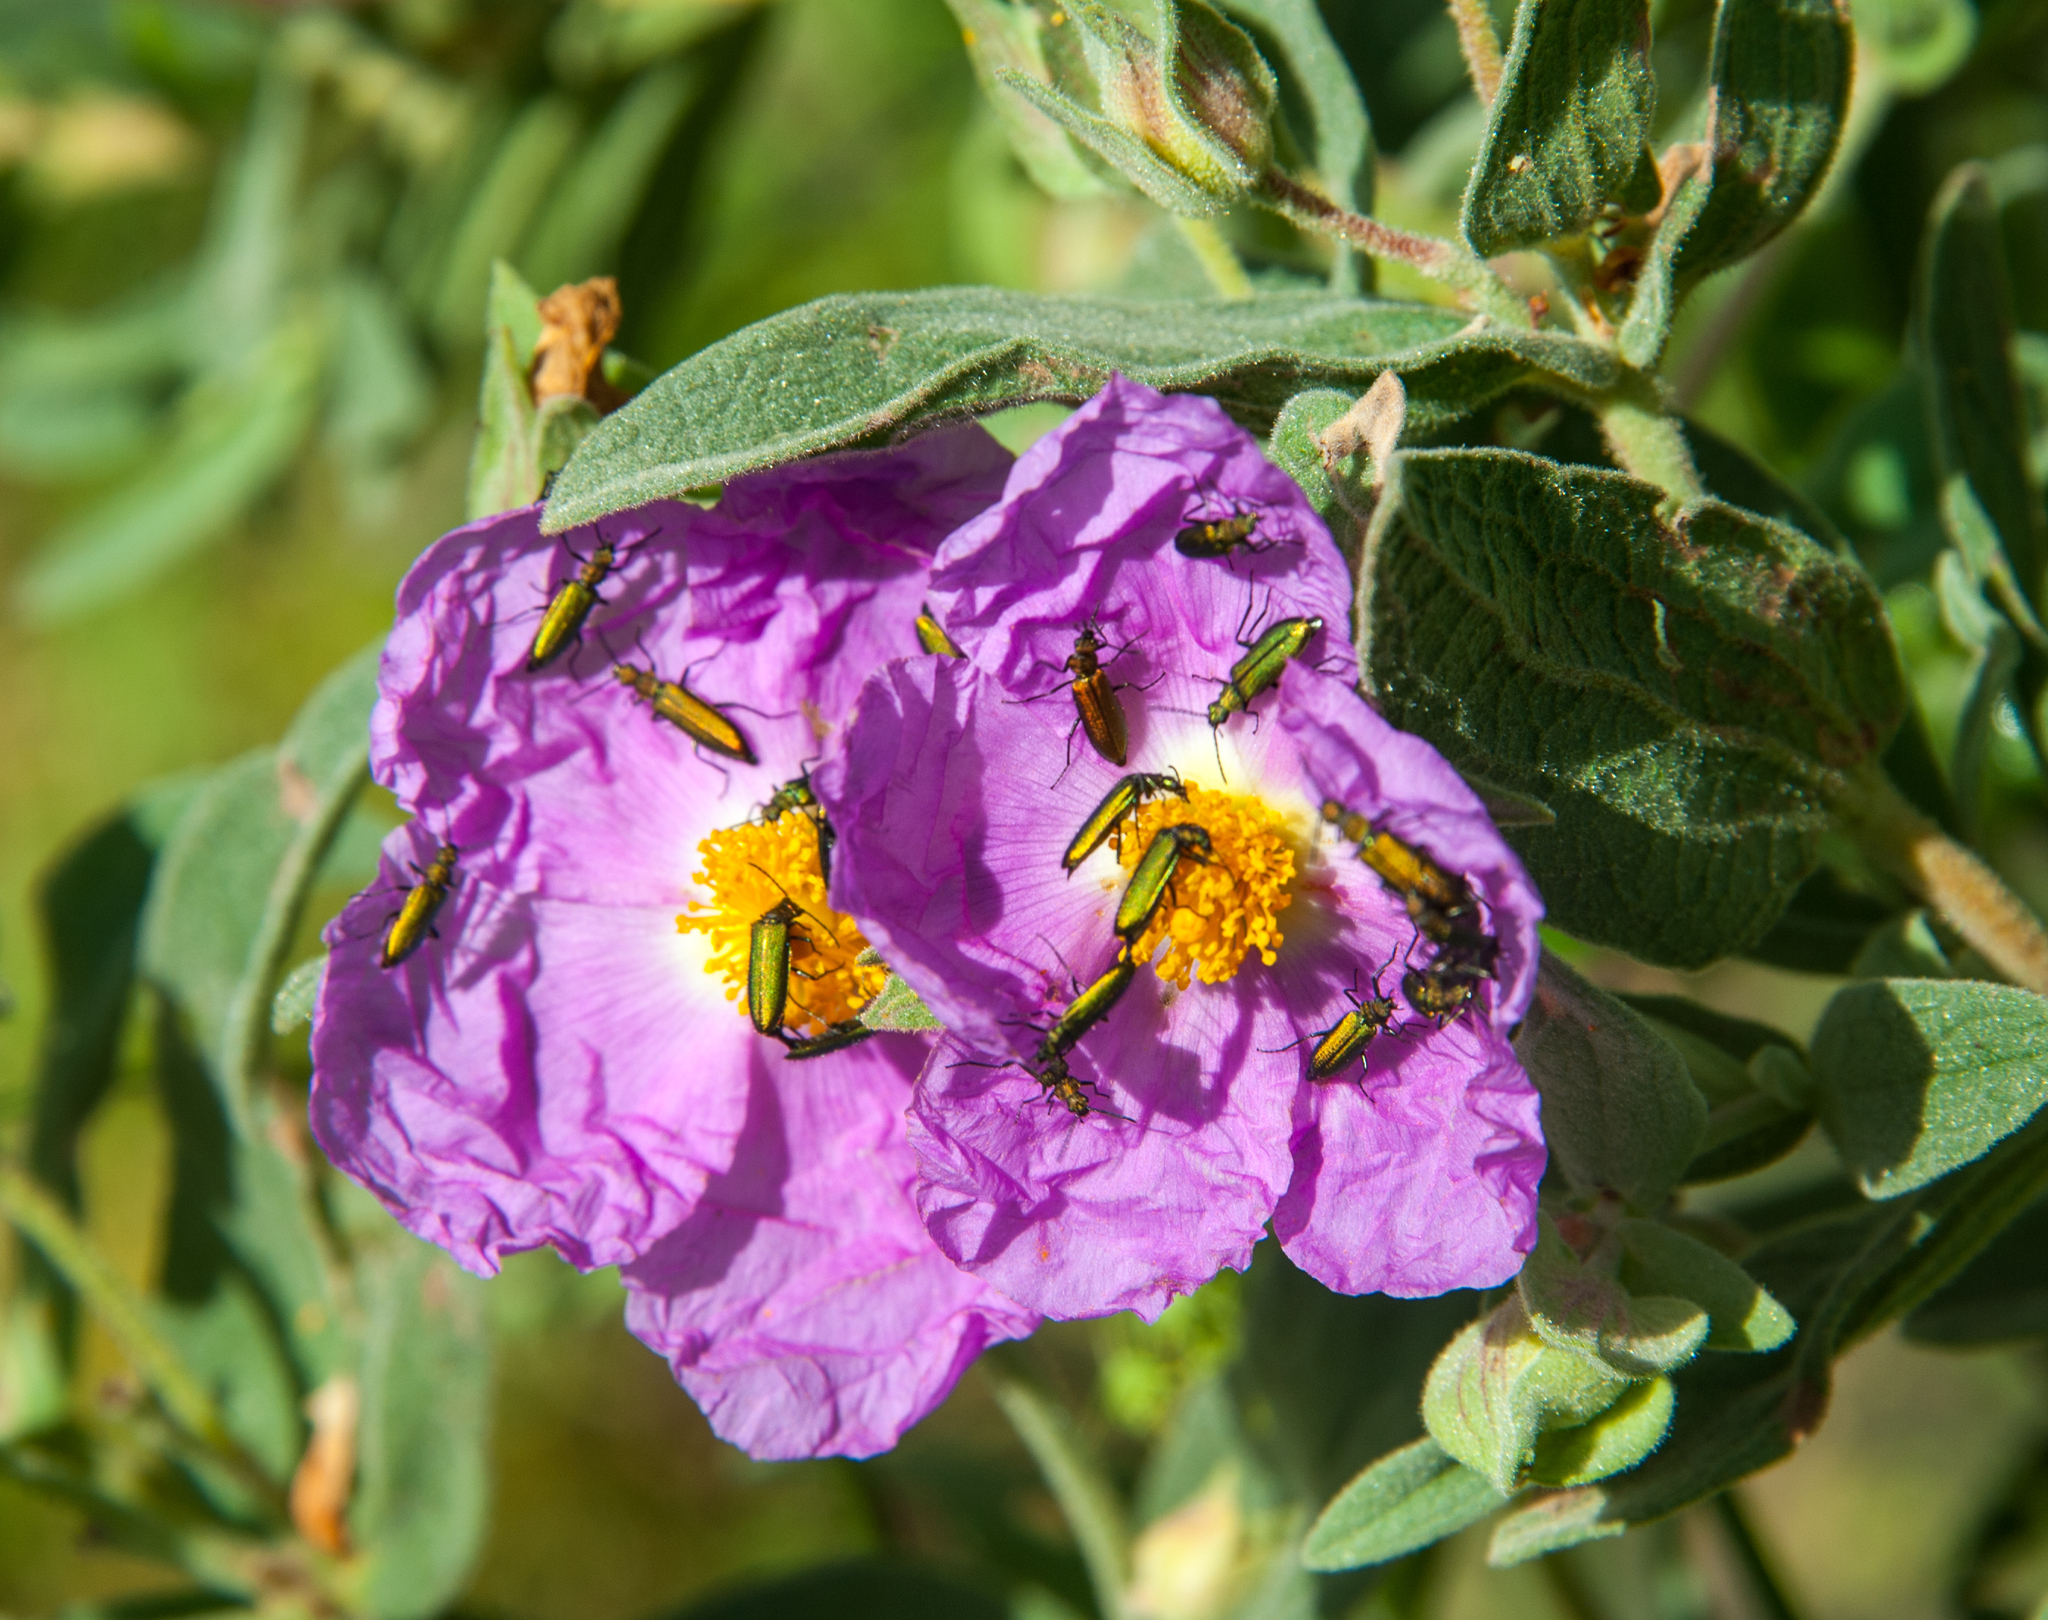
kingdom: Plantae
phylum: Tracheophyta
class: Magnoliopsida
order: Malvales
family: Cistaceae
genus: Cistus
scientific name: Cistus albidus
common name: White-leaf rock-rose
